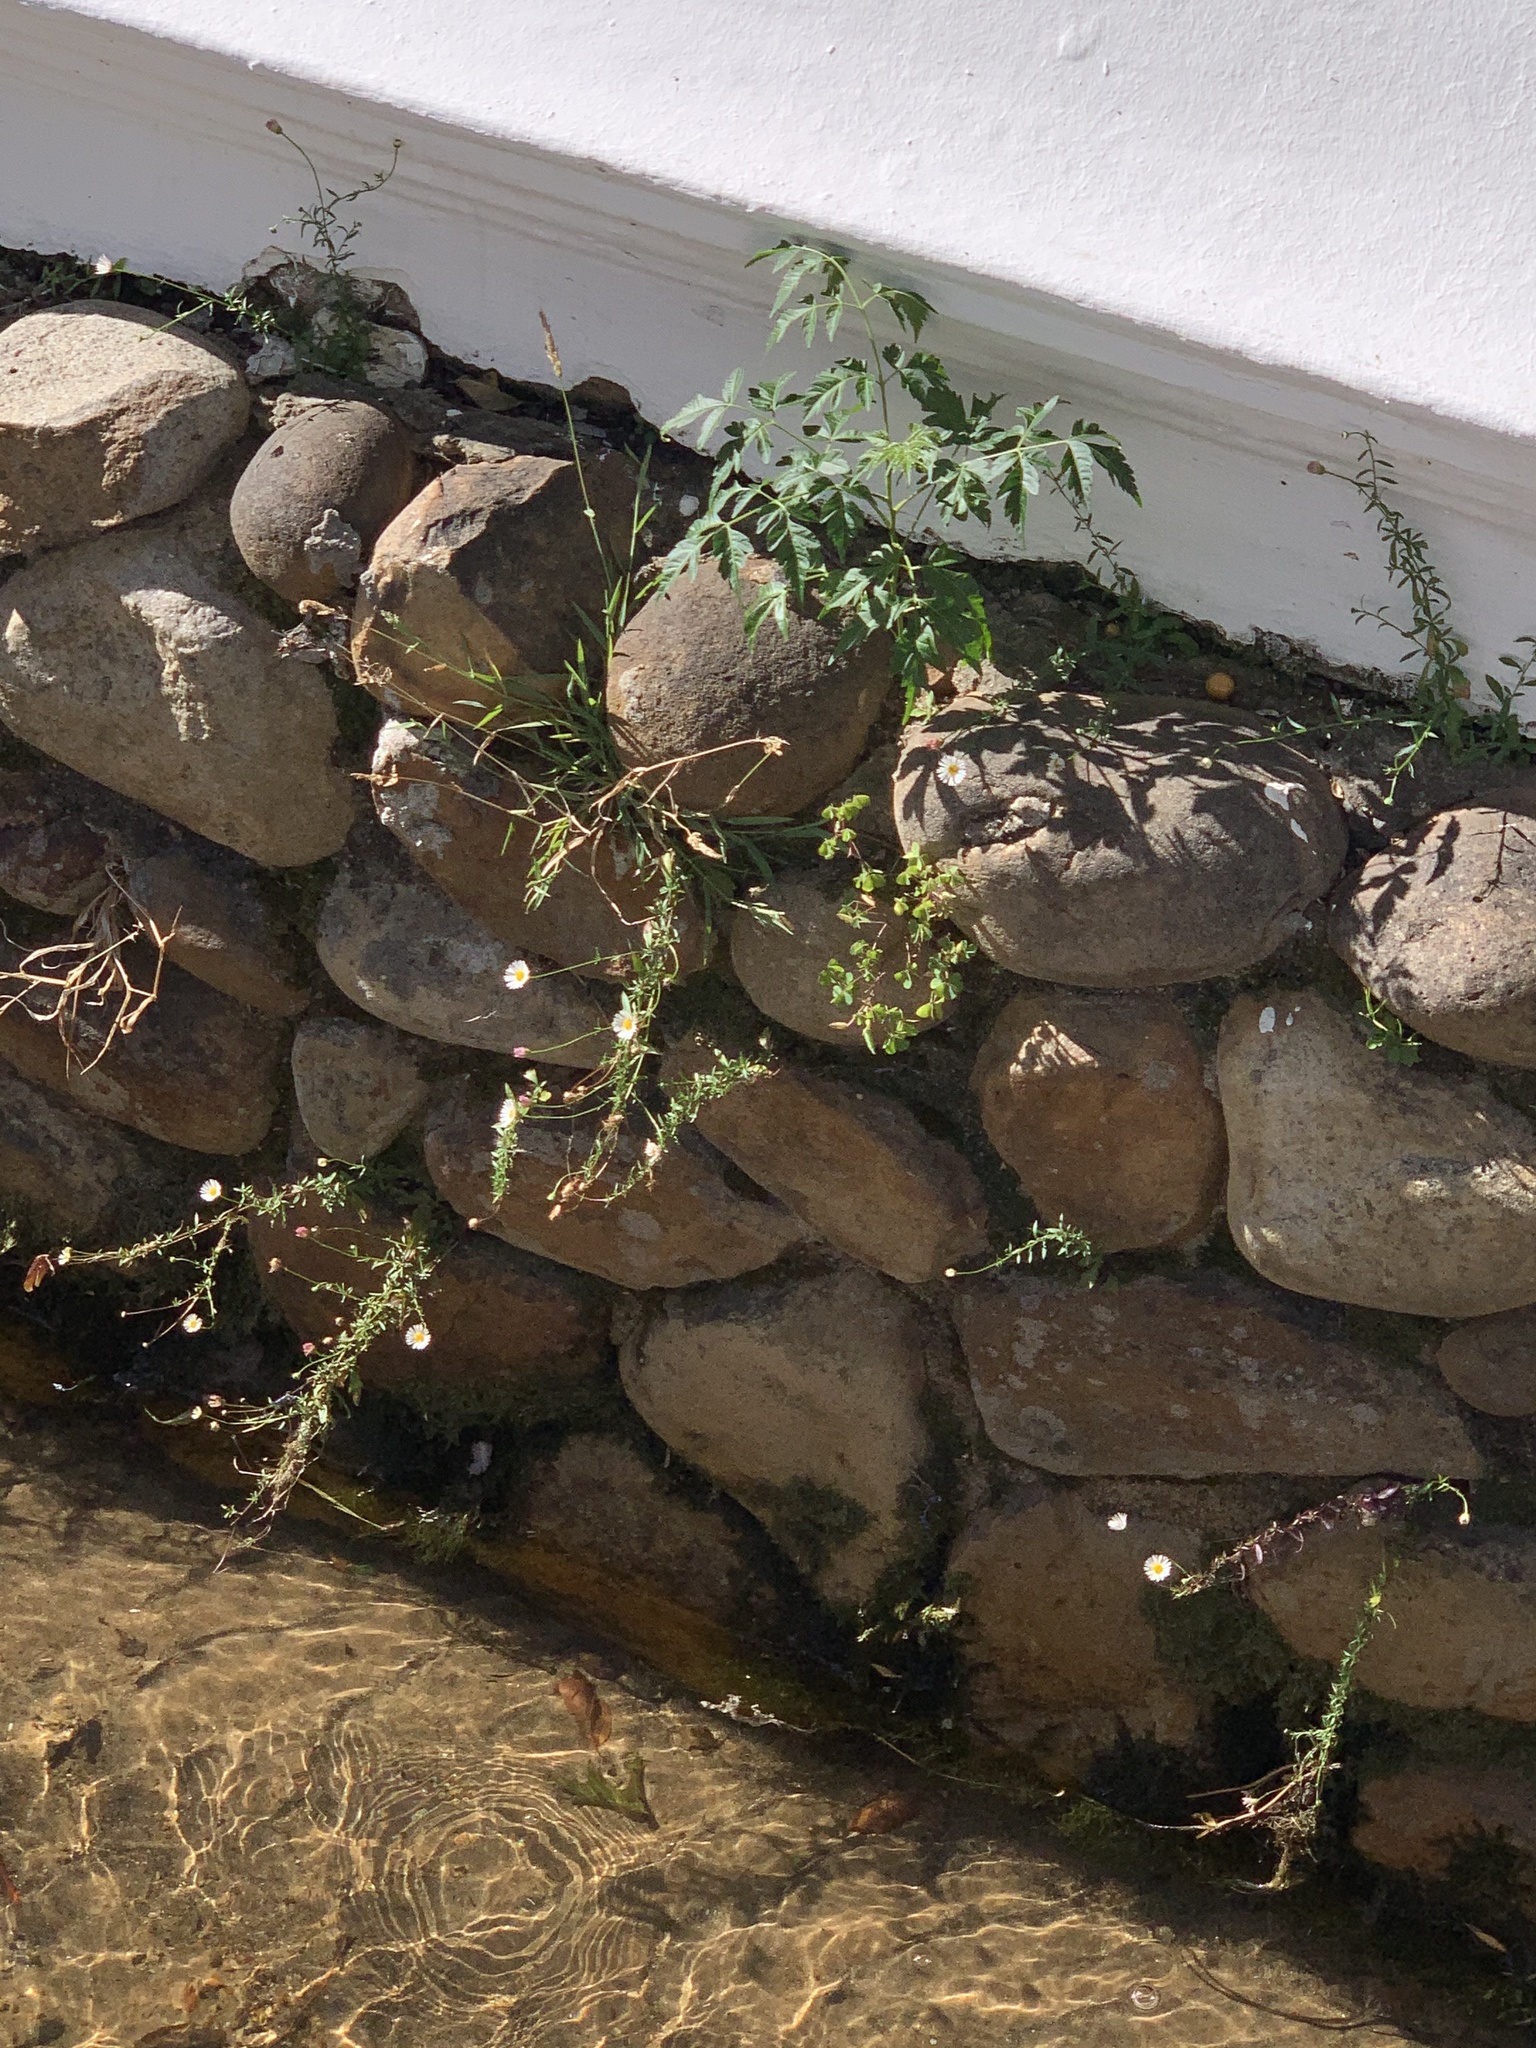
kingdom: Plantae
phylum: Tracheophyta
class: Magnoliopsida
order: Sapindales
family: Meliaceae
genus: Melia
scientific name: Melia azedarach
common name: Chinaberrytree
